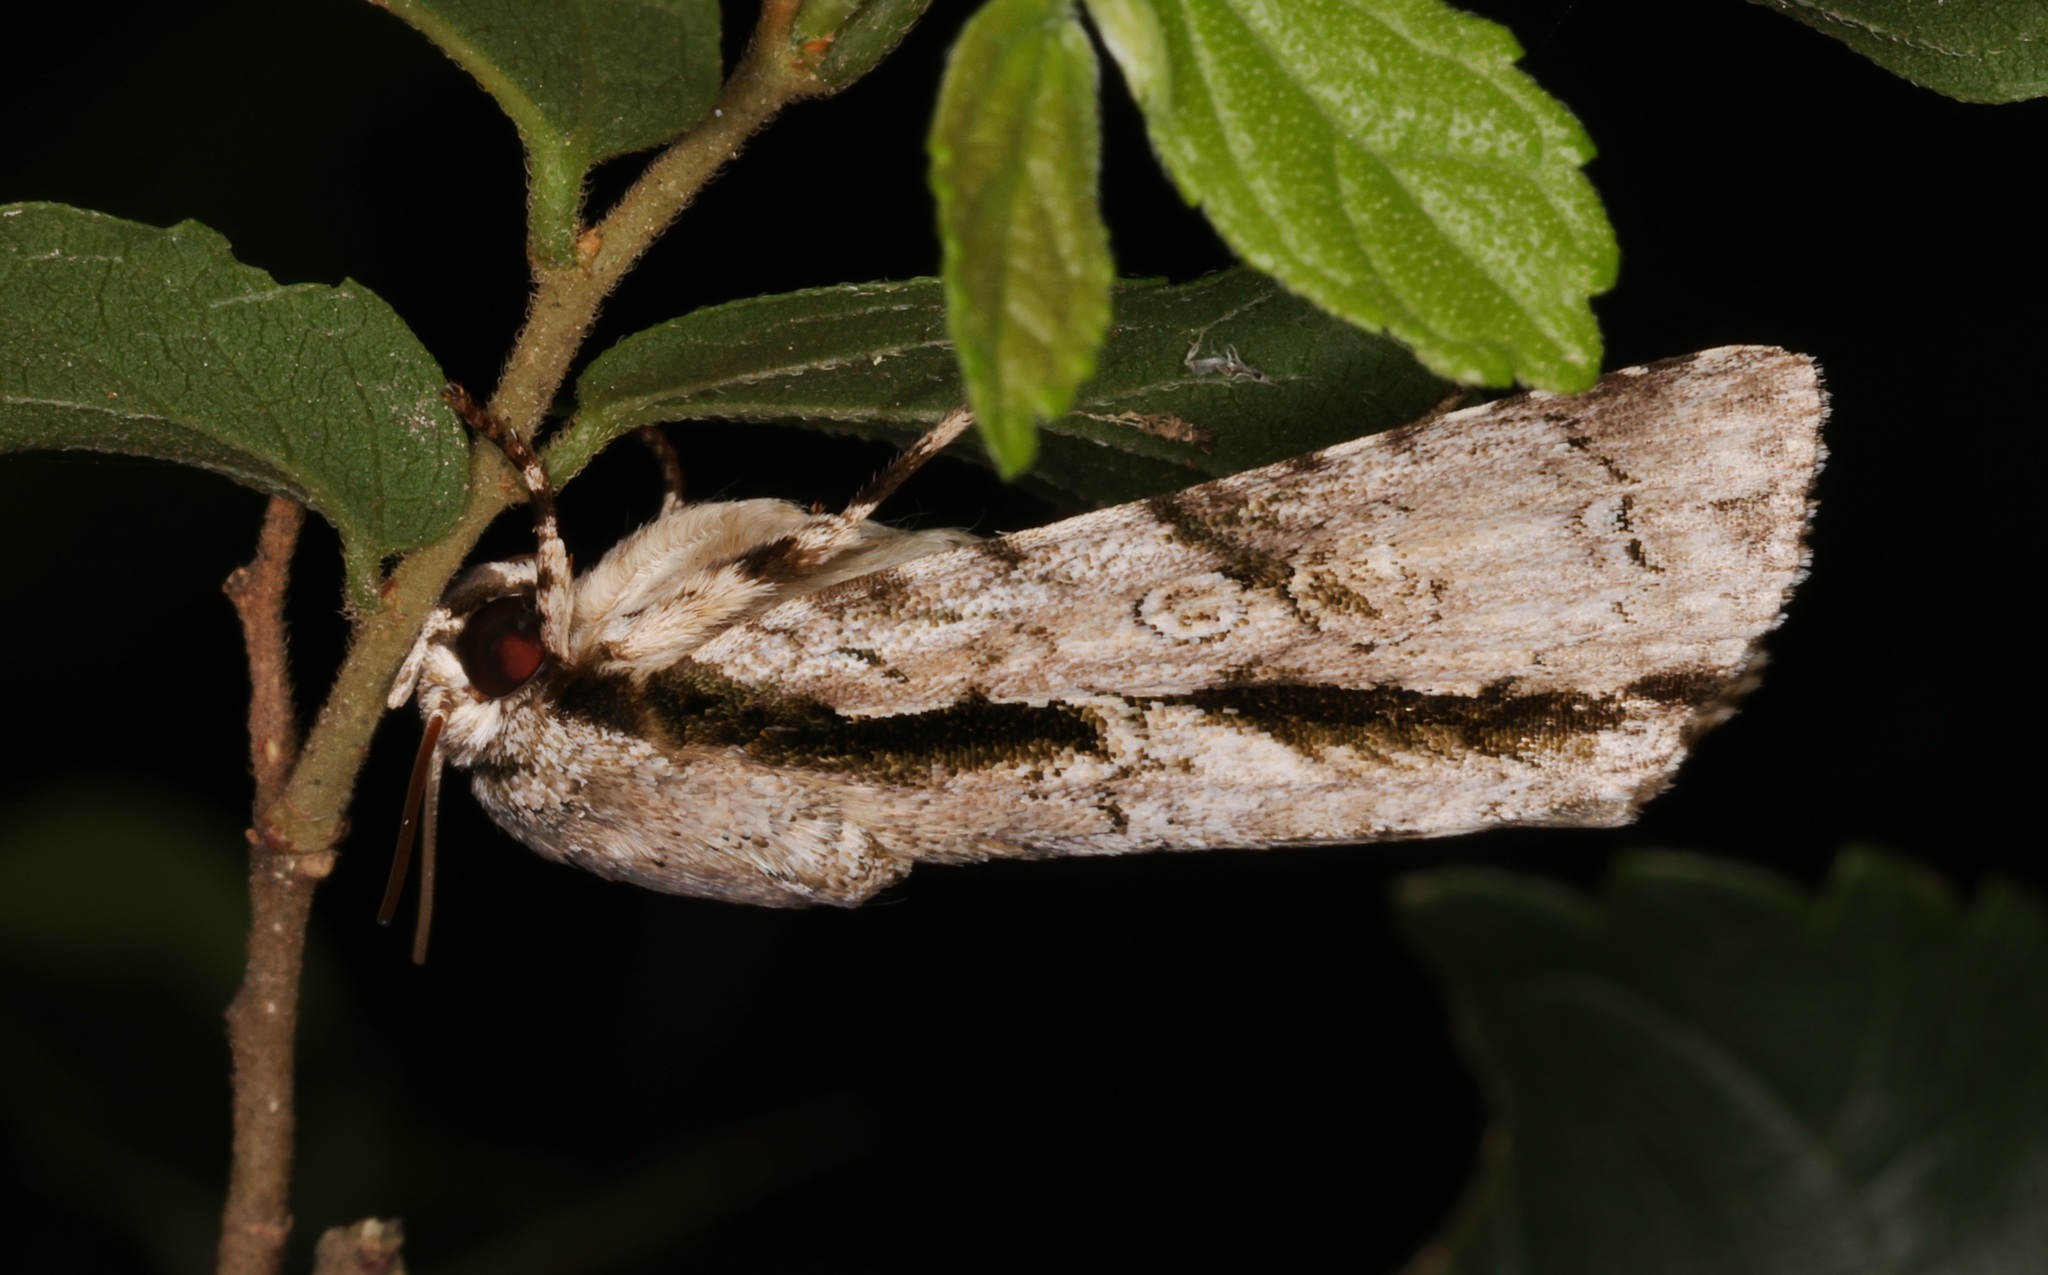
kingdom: Animalia
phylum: Arthropoda
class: Insecta
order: Lepidoptera
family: Noctuidae
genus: Fascionycta
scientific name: Fascionycta fasciata
